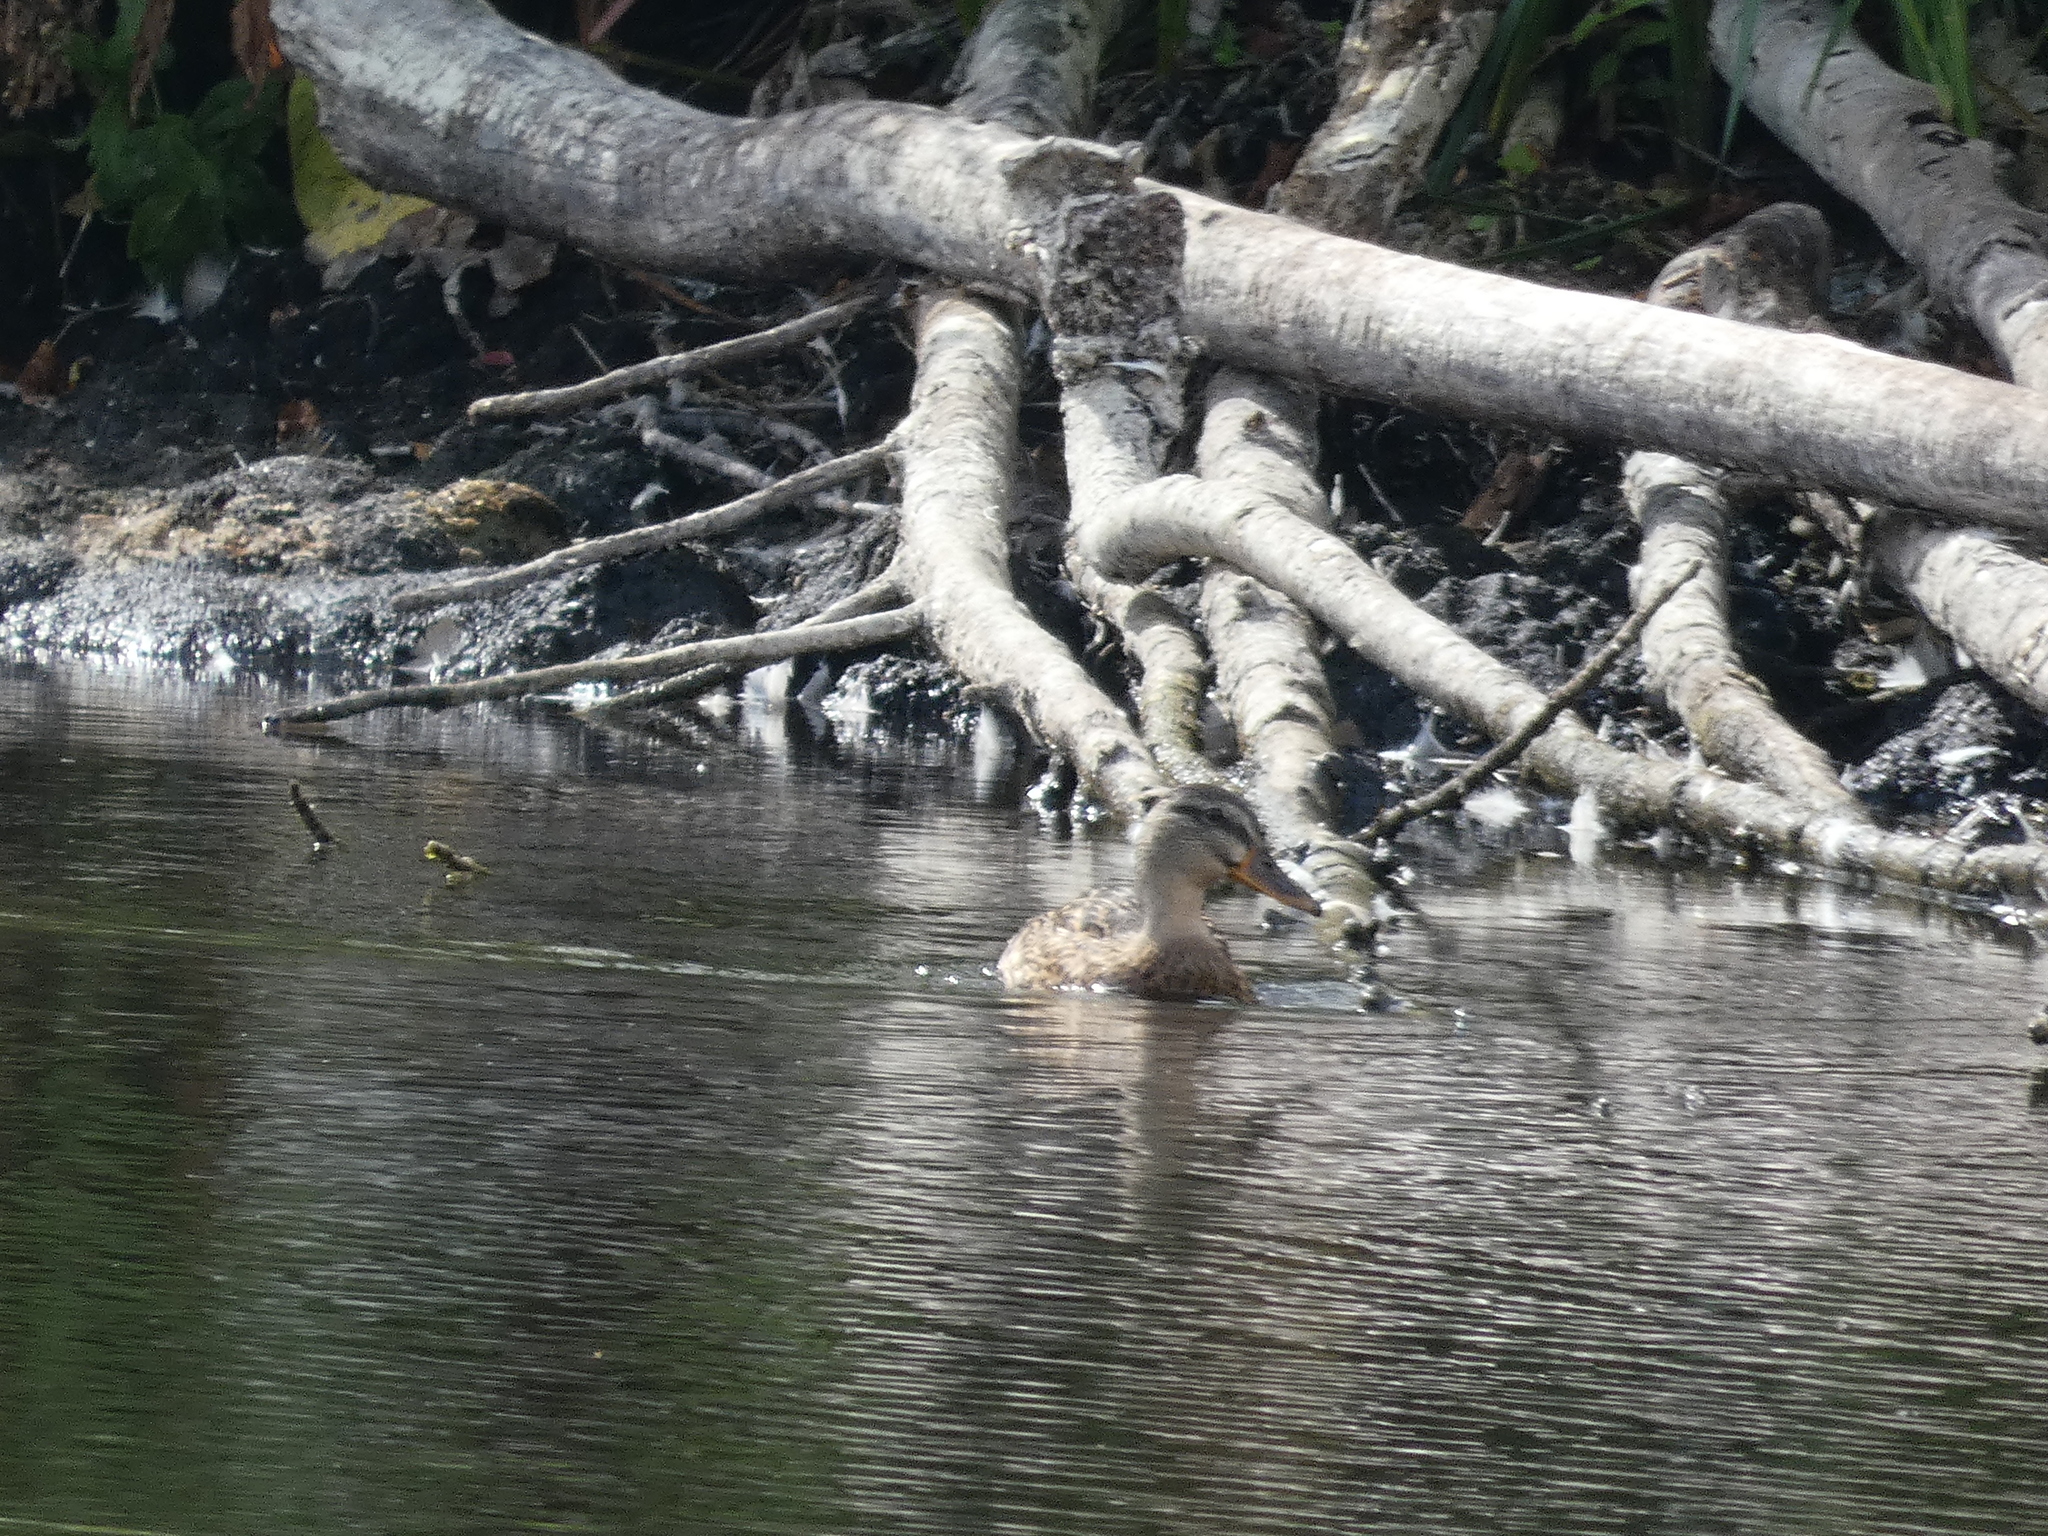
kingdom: Animalia
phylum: Chordata
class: Aves
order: Anseriformes
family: Anatidae
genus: Anas
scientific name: Anas platyrhynchos
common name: Mallard
